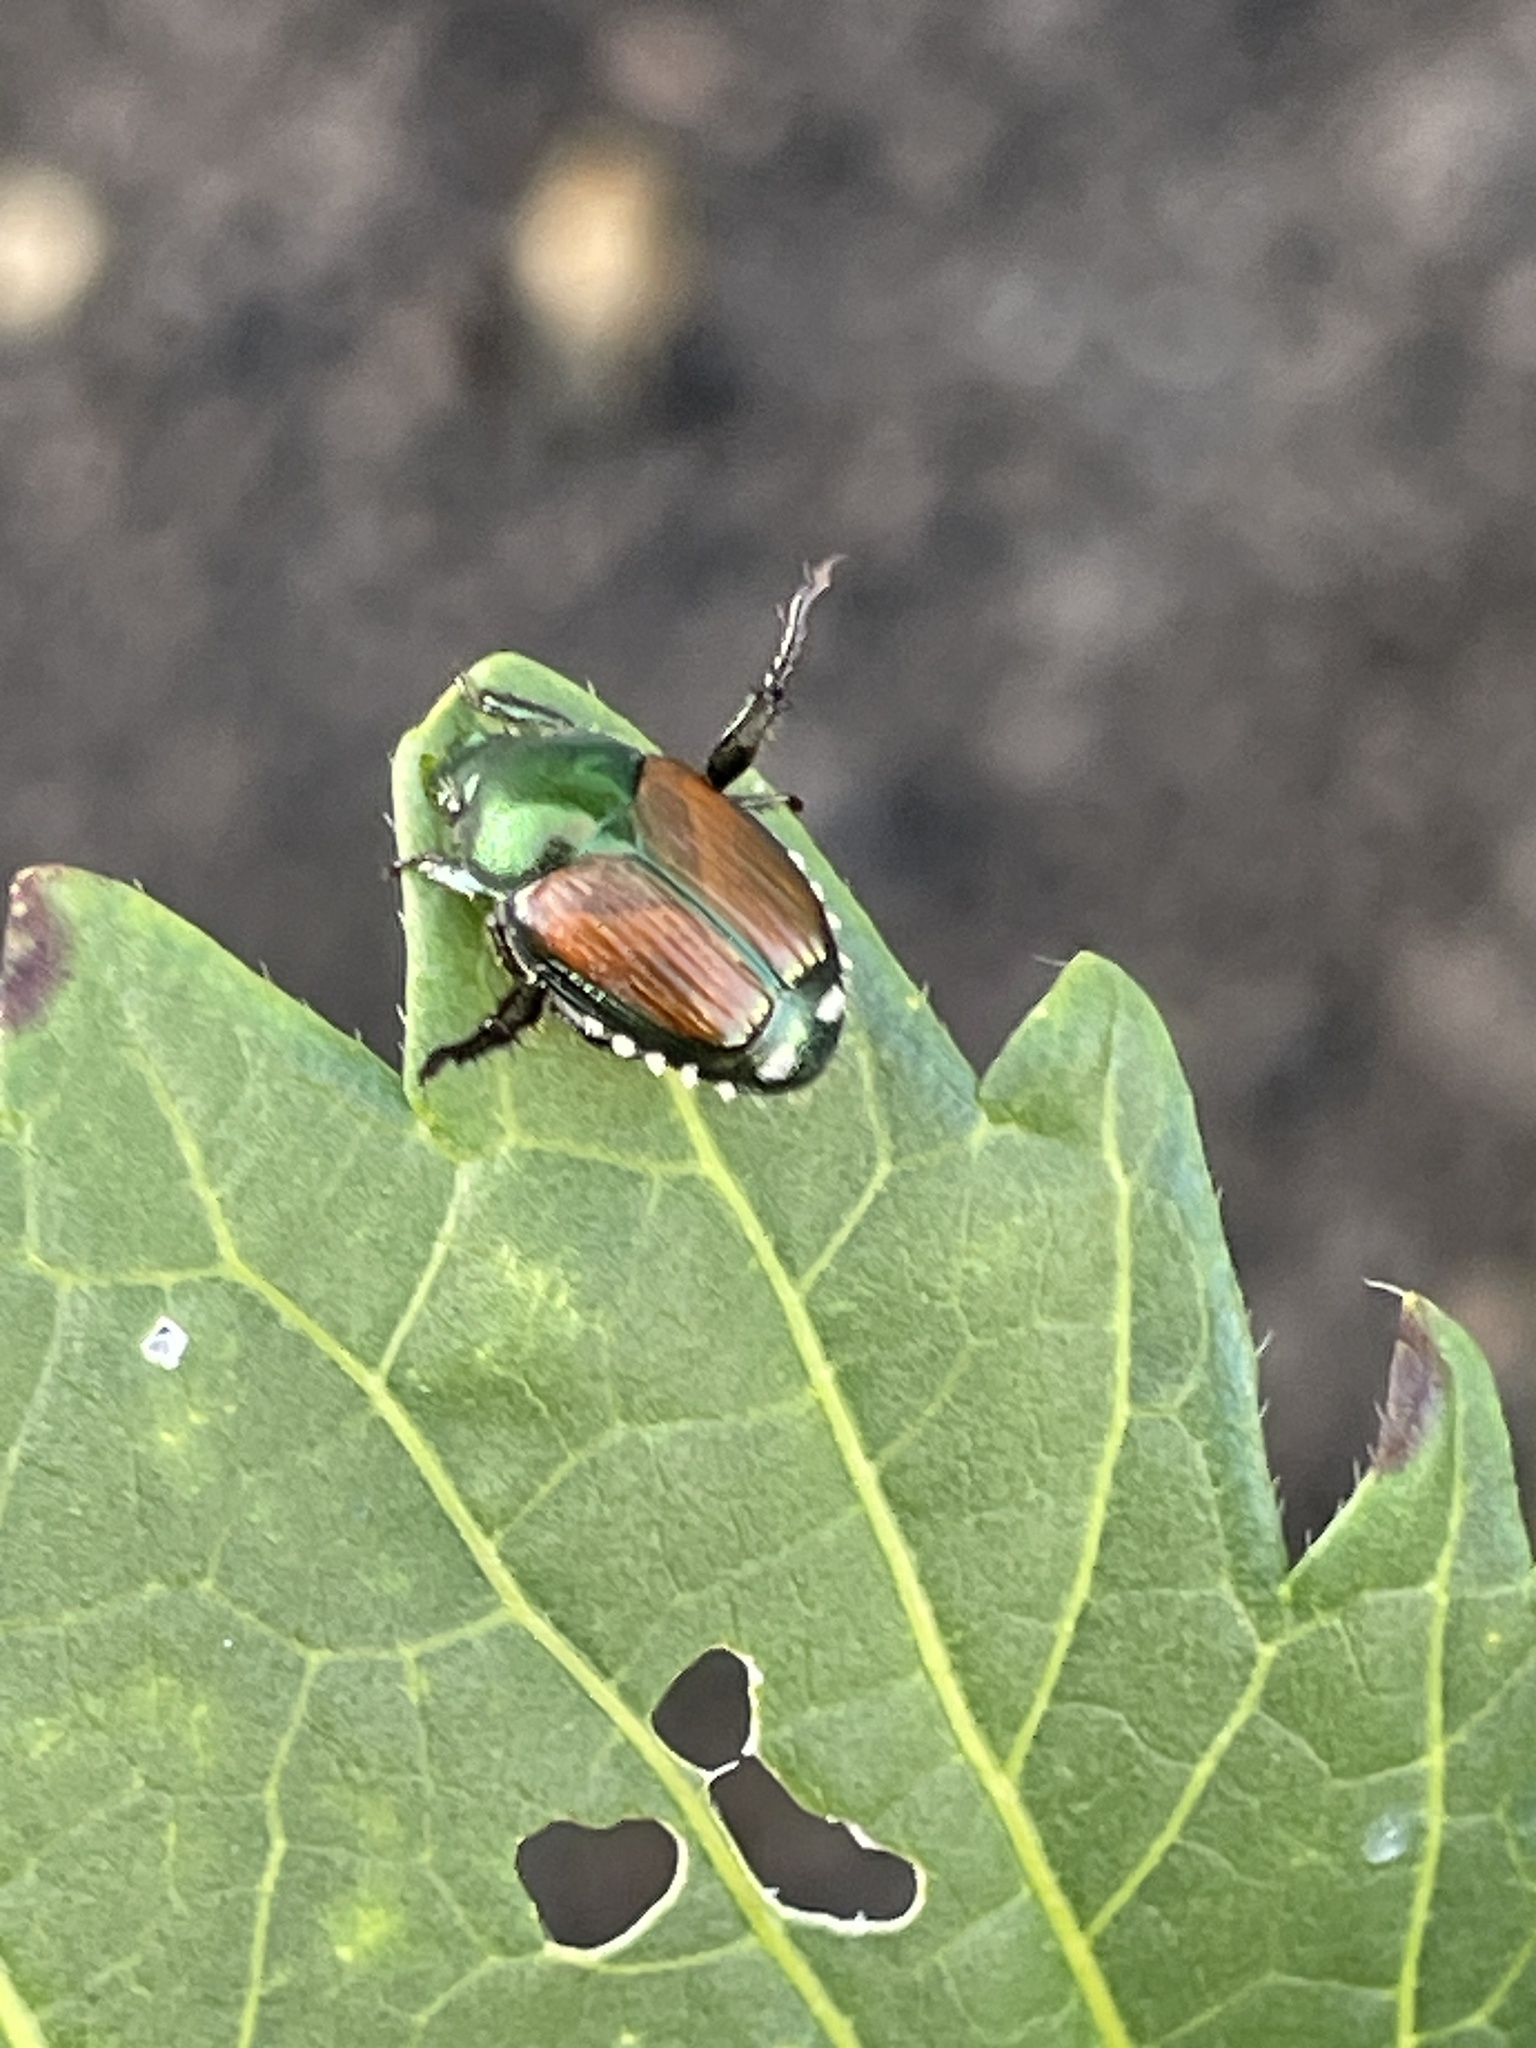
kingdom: Animalia
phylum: Arthropoda
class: Insecta
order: Coleoptera
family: Scarabaeidae
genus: Popillia
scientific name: Popillia japonica
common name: Japanese beetle
